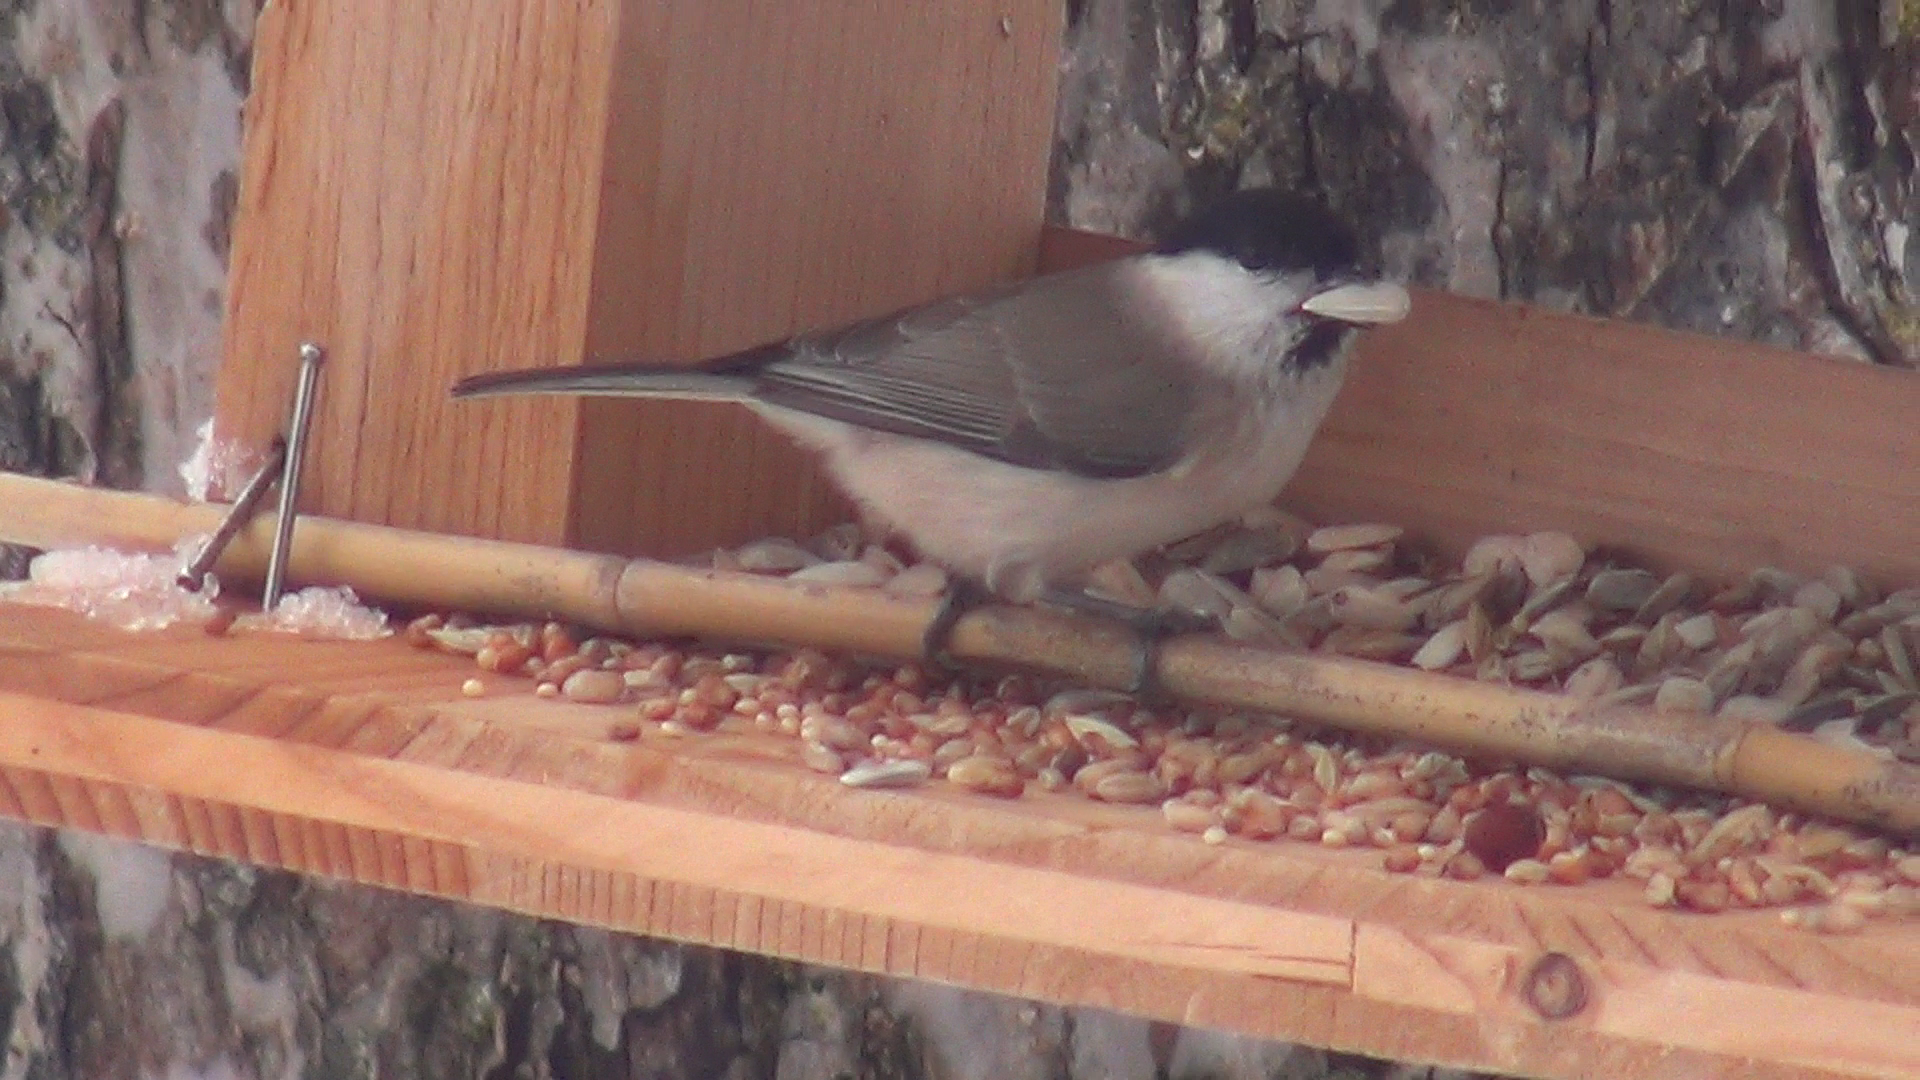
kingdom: Animalia
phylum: Chordata
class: Aves
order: Passeriformes
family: Paridae
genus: Poecile
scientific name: Poecile palustris
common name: Marsh tit
